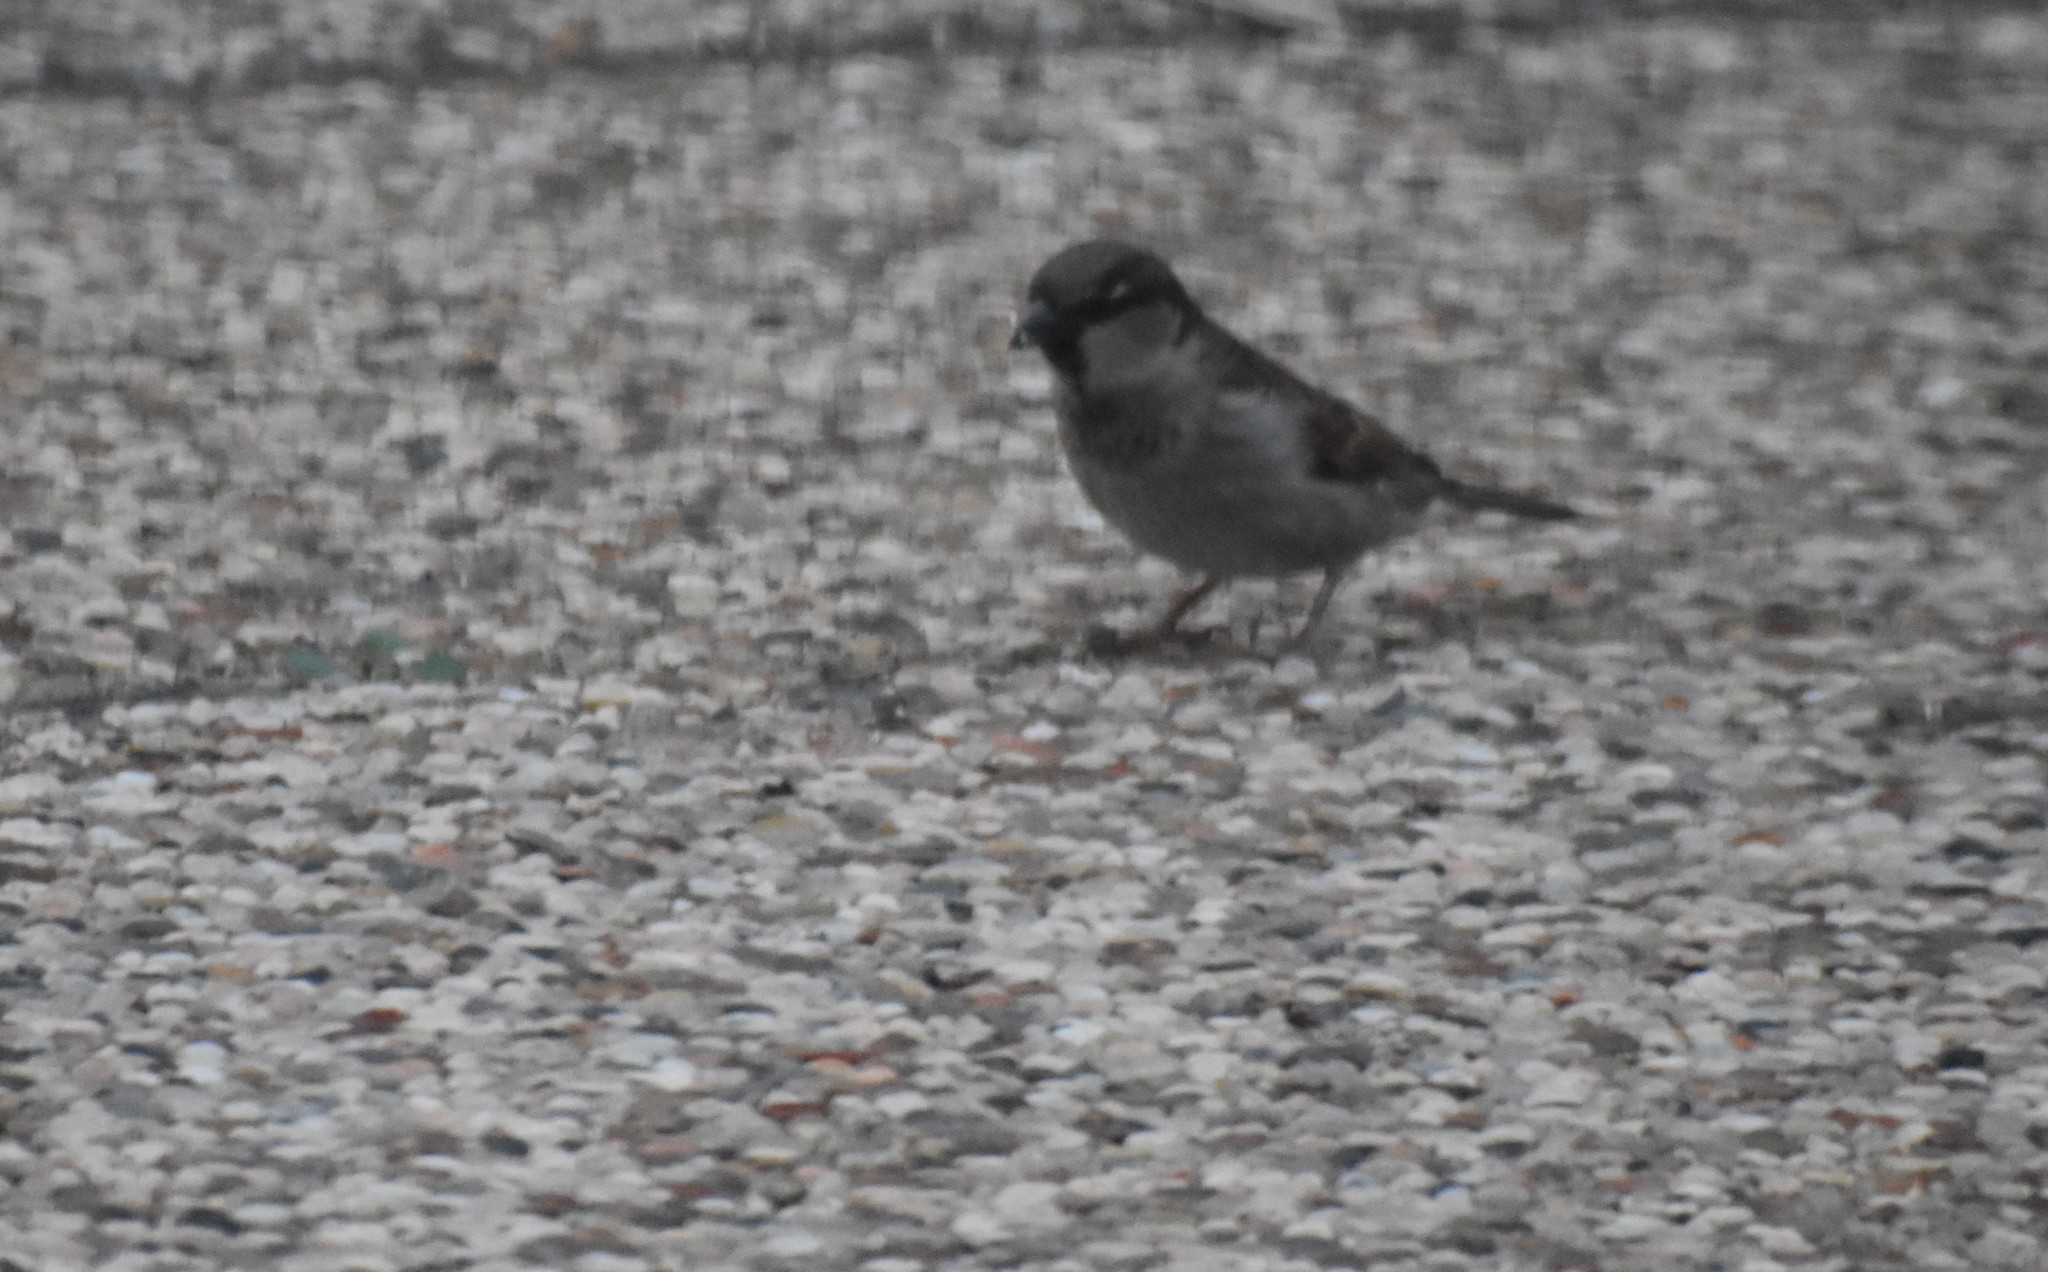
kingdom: Animalia
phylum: Chordata
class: Aves
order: Passeriformes
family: Passeridae
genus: Passer
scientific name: Passer domesticus
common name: House sparrow
